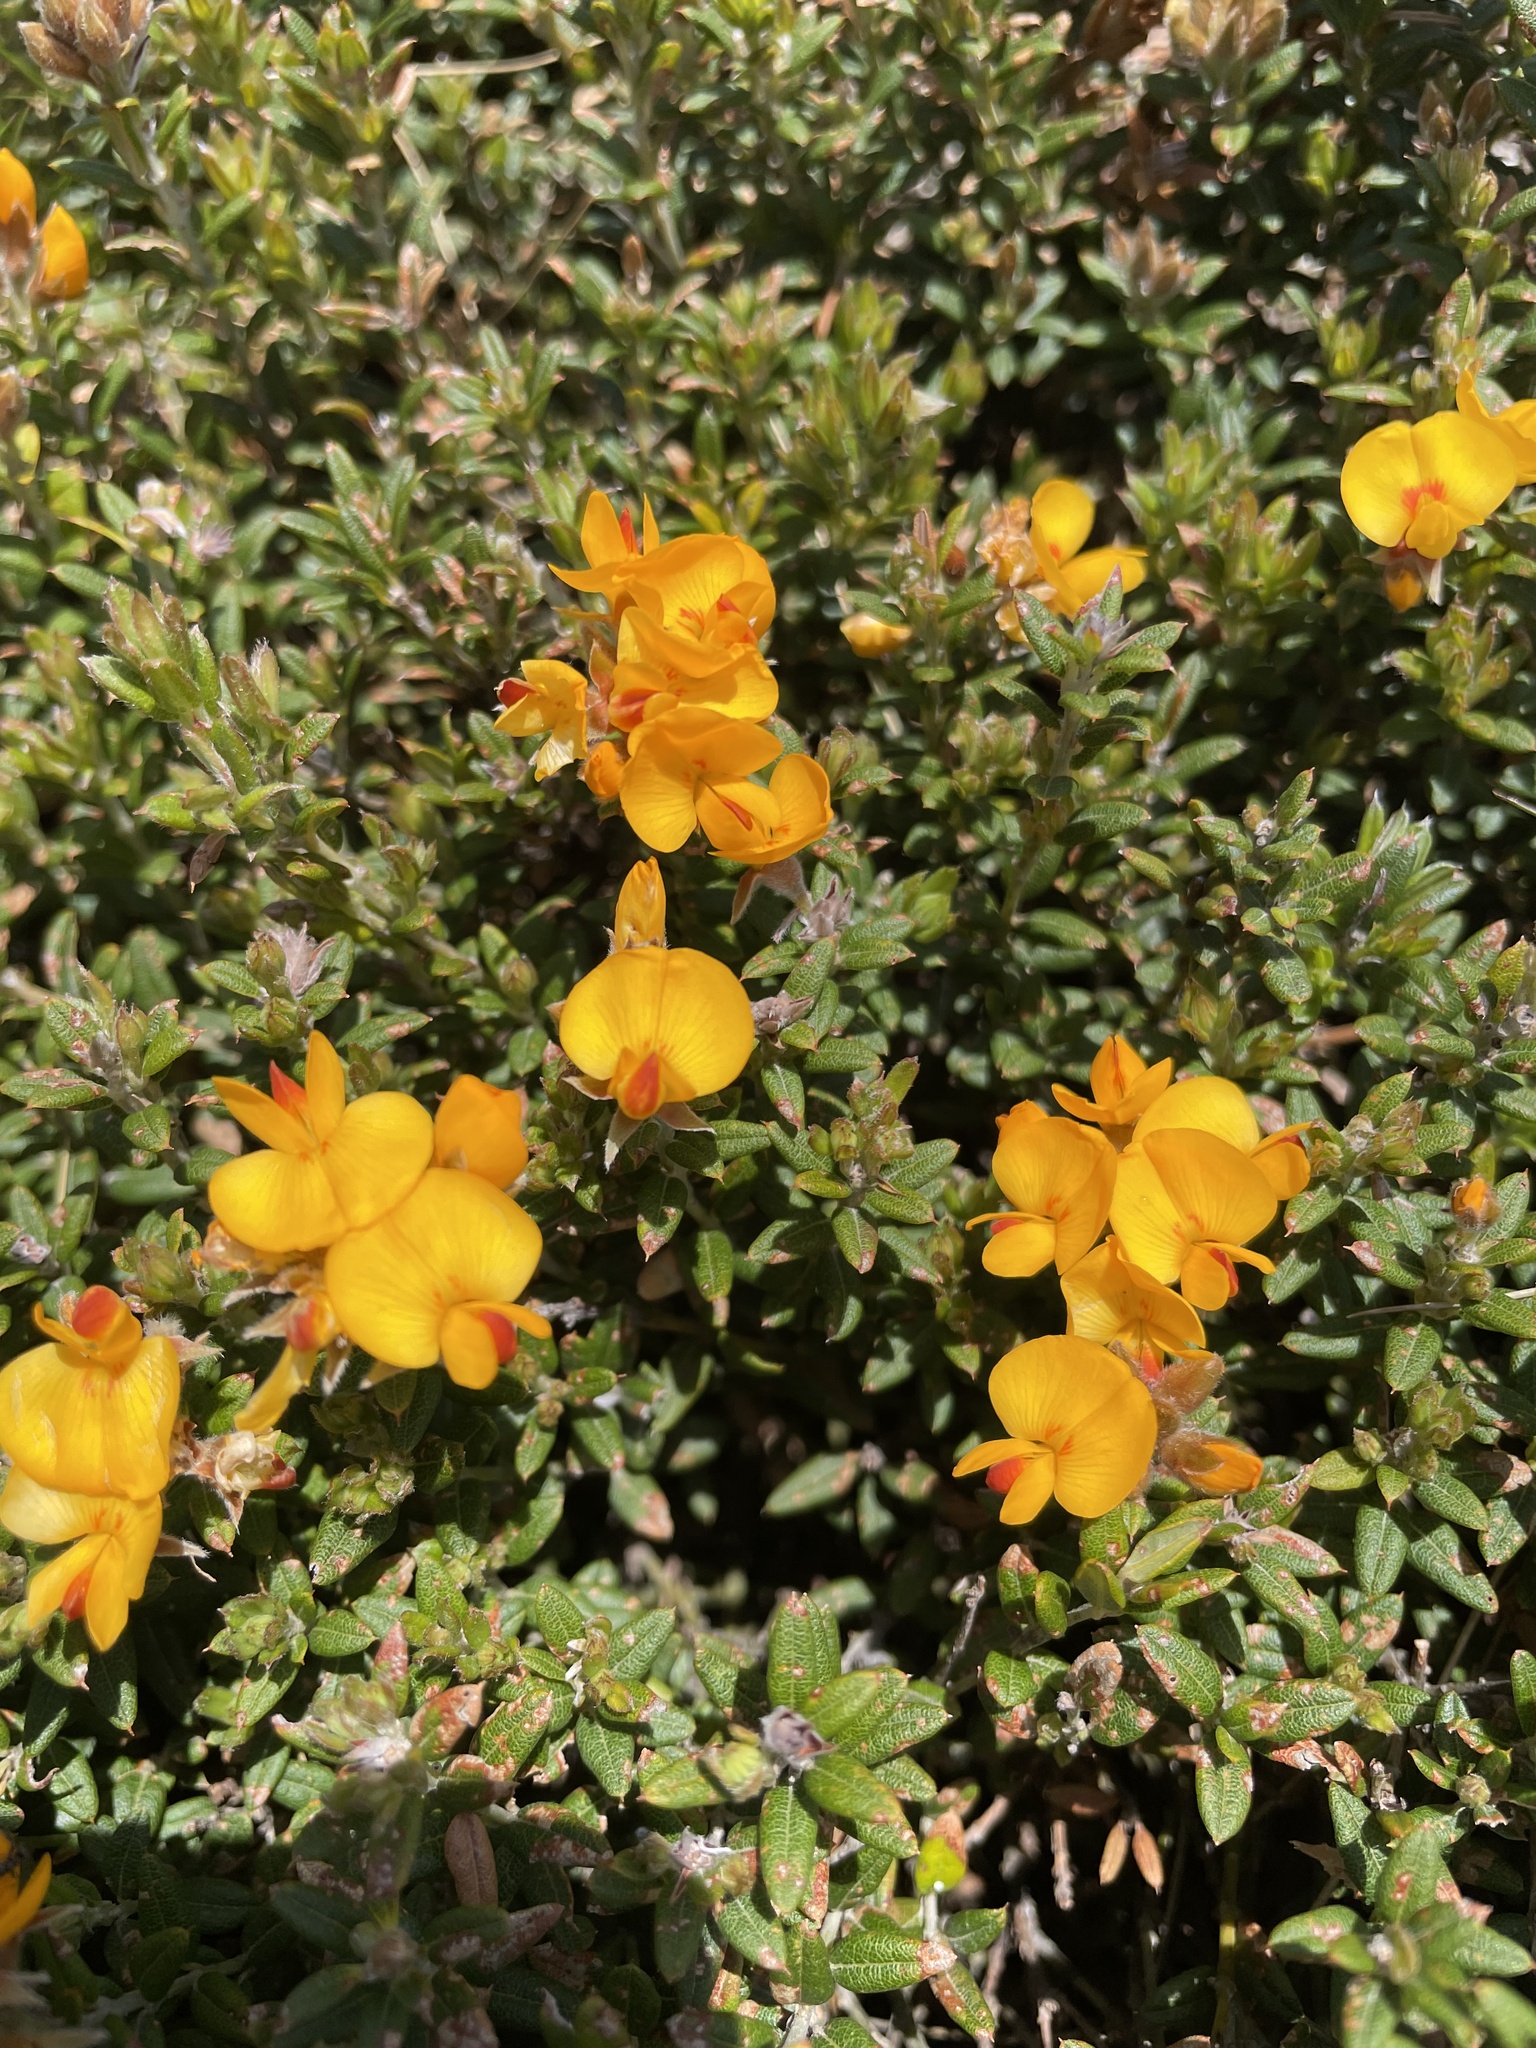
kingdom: Plantae
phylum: Tracheophyta
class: Magnoliopsida
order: Fabales
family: Fabaceae
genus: Oxylobium
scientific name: Oxylobium ellipticum
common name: Golden shaggy-pea
